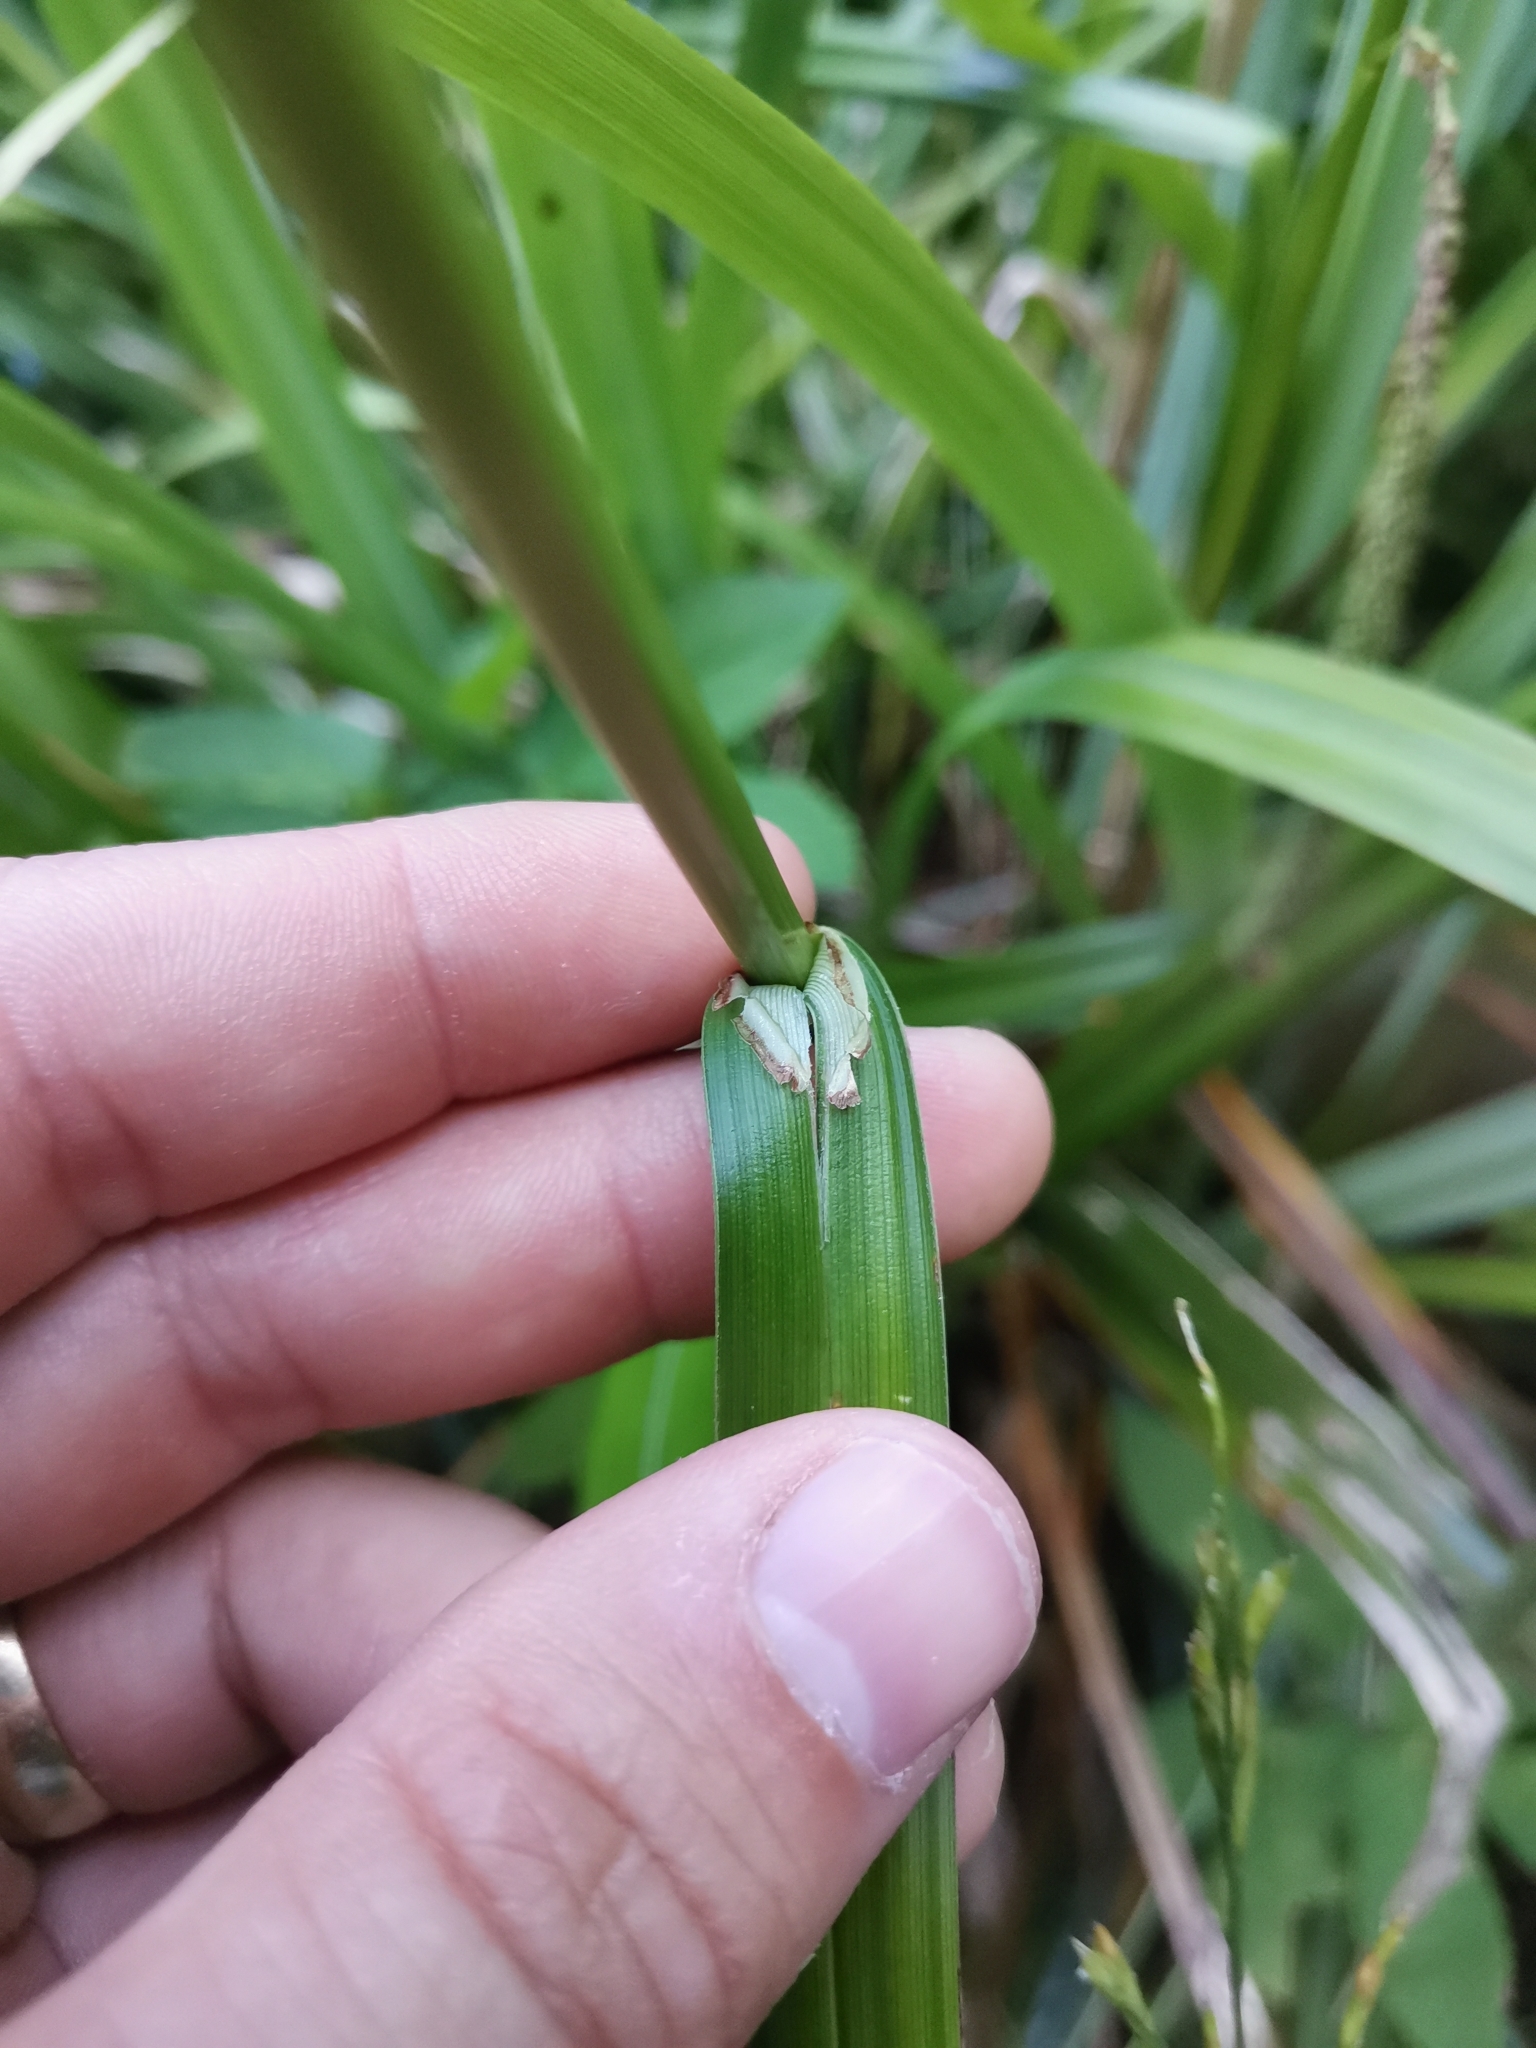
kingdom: Plantae
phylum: Tracheophyta
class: Liliopsida
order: Poales
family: Cyperaceae
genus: Carex
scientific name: Carex pendula
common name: Pendulous sedge
